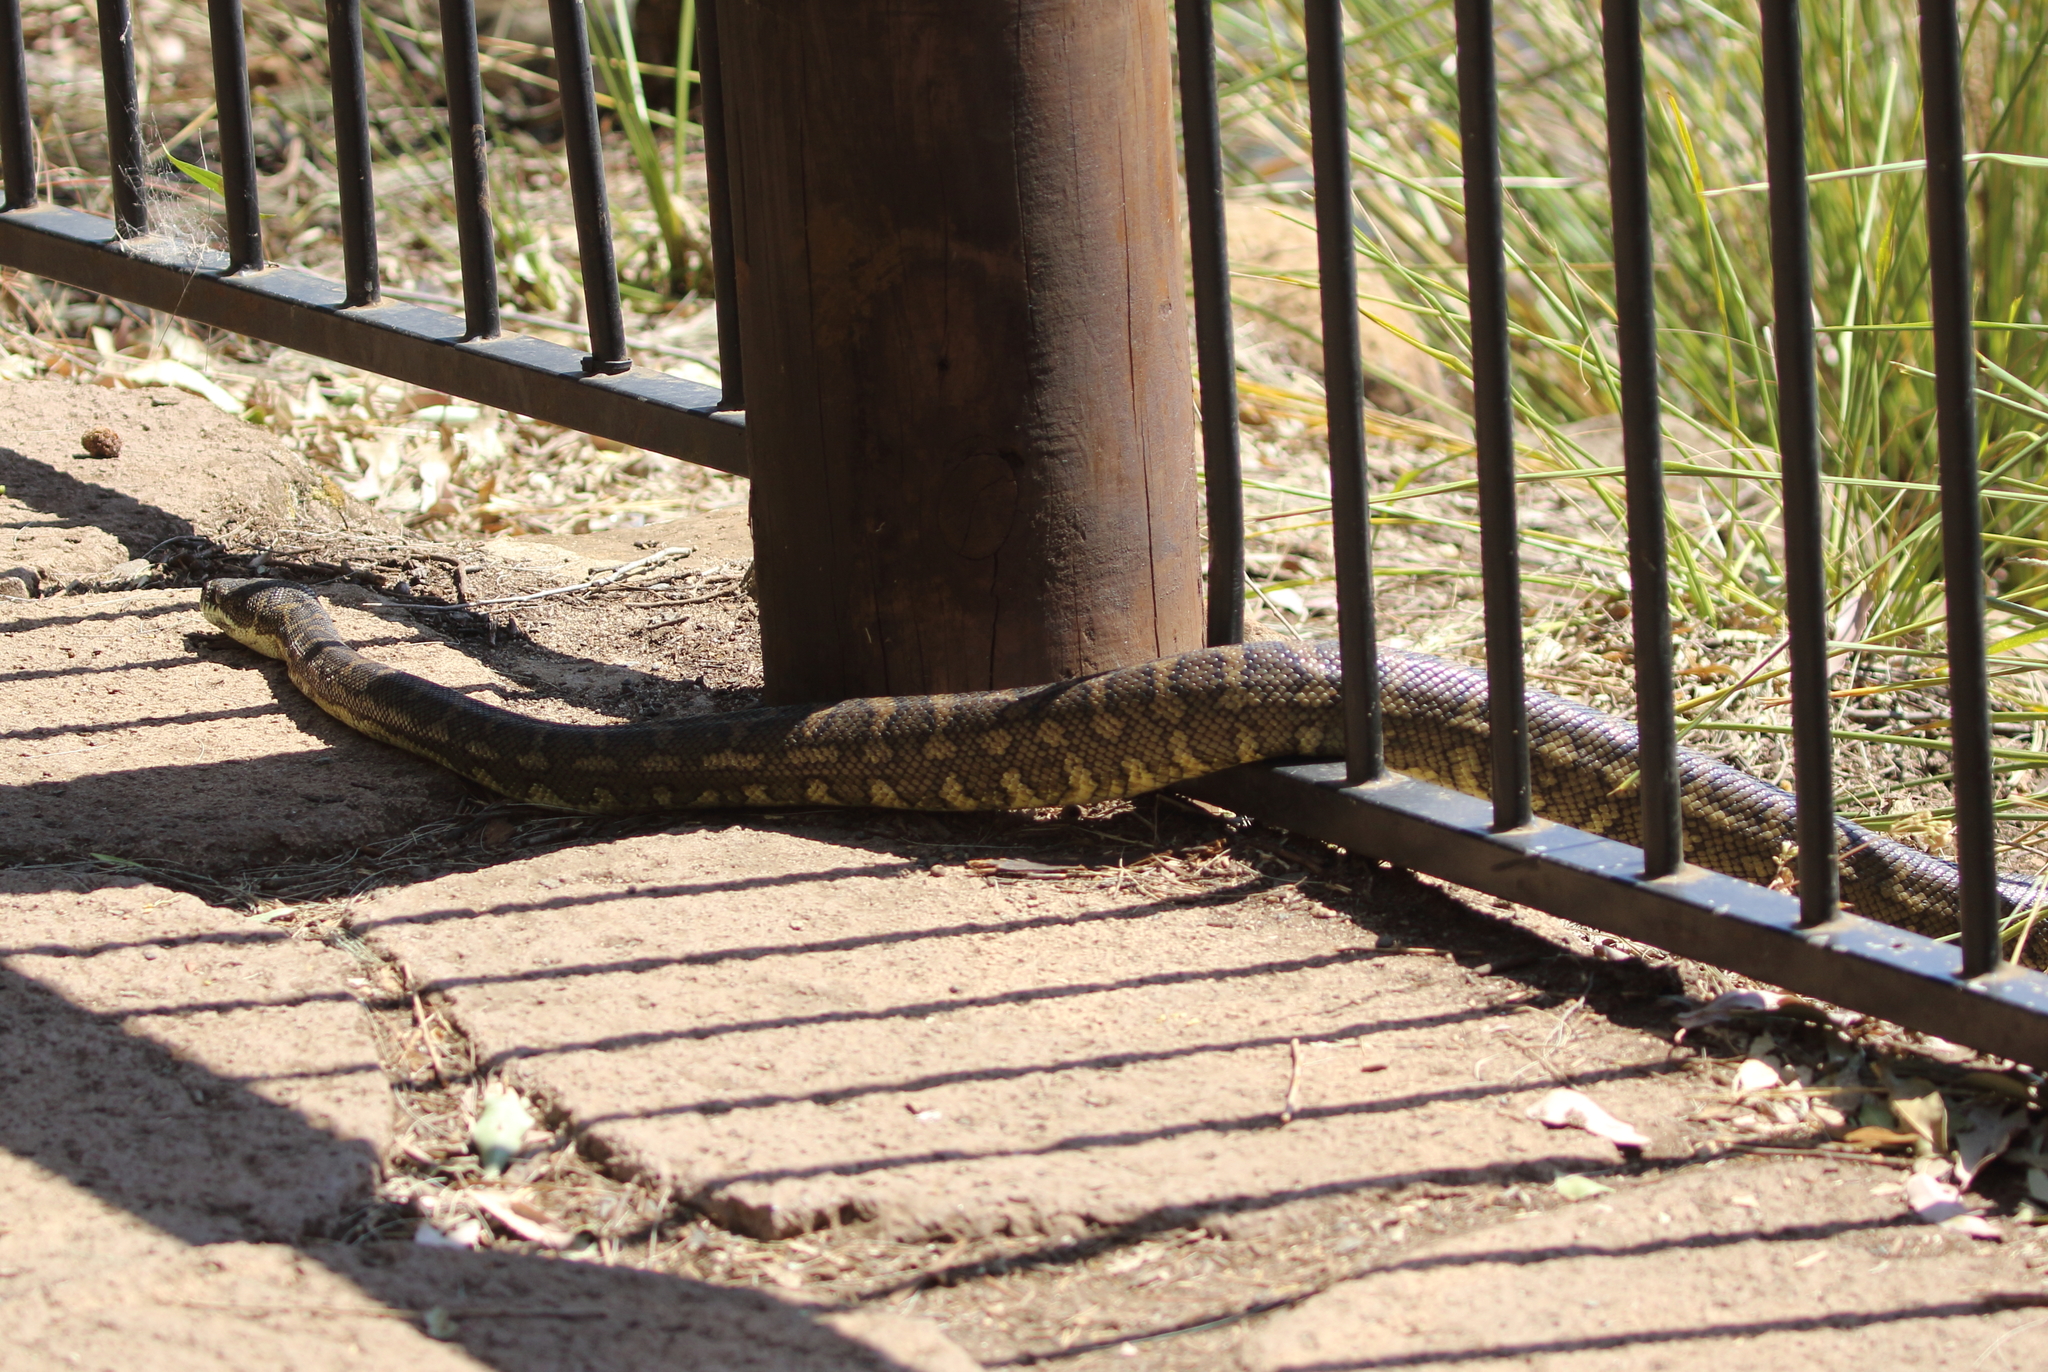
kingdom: Animalia
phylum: Chordata
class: Squamata
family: Pythonidae
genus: Morelia
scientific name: Morelia spilota
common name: Carpet python
